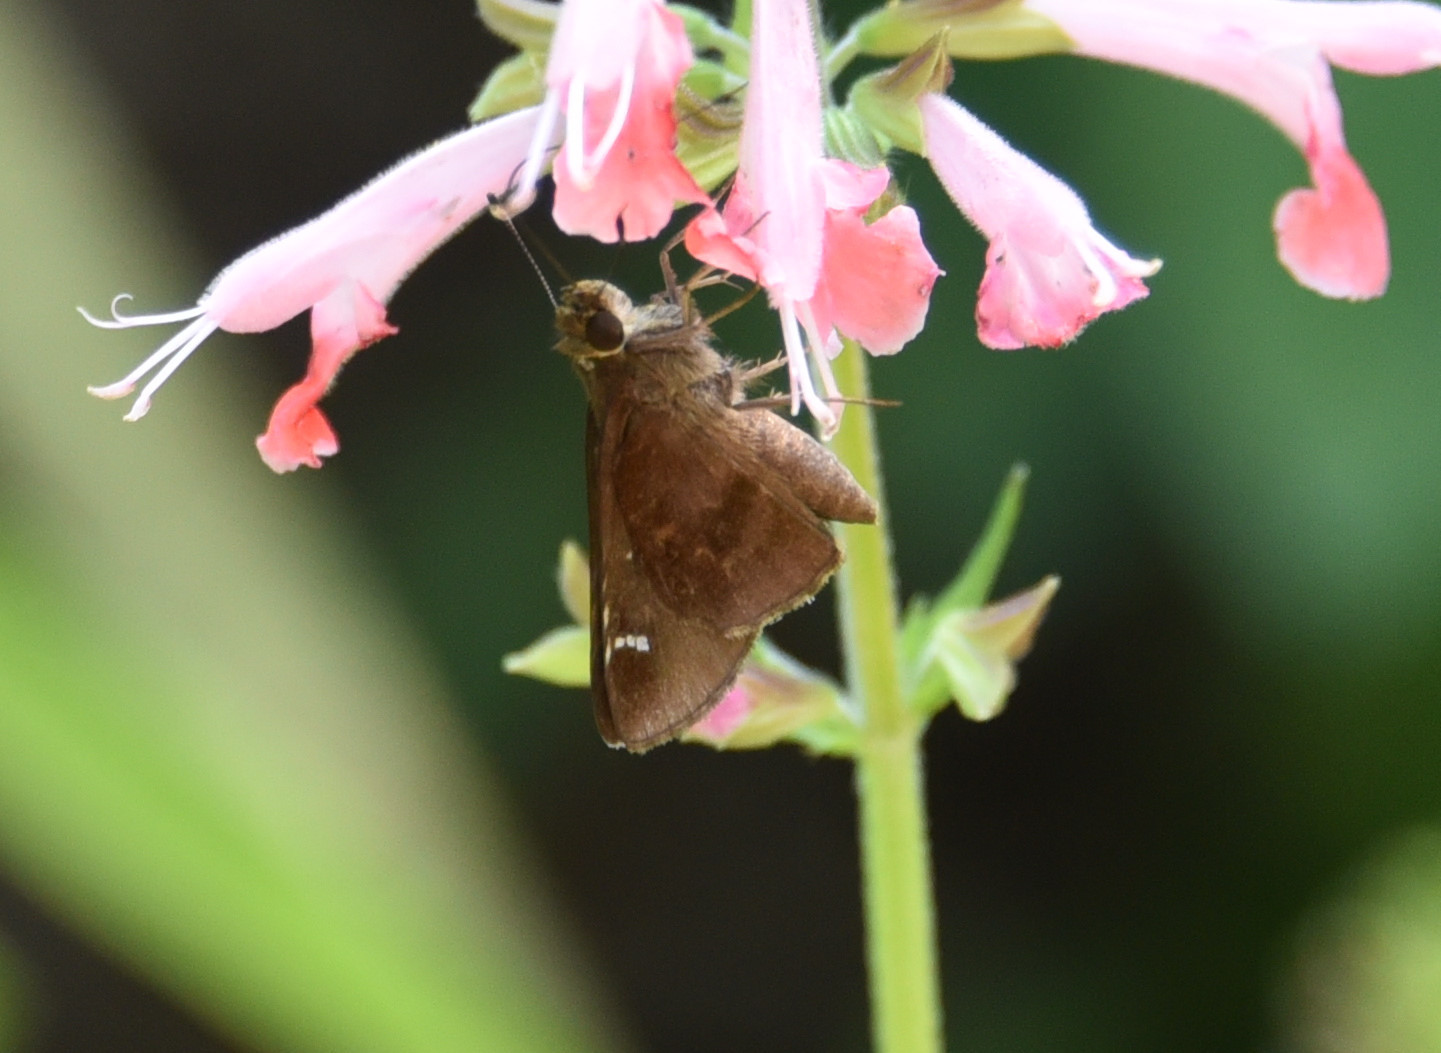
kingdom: Animalia
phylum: Arthropoda
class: Insecta
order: Lepidoptera
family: Hesperiidae
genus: Lerema
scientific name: Lerema accius
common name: Clouded skipper
